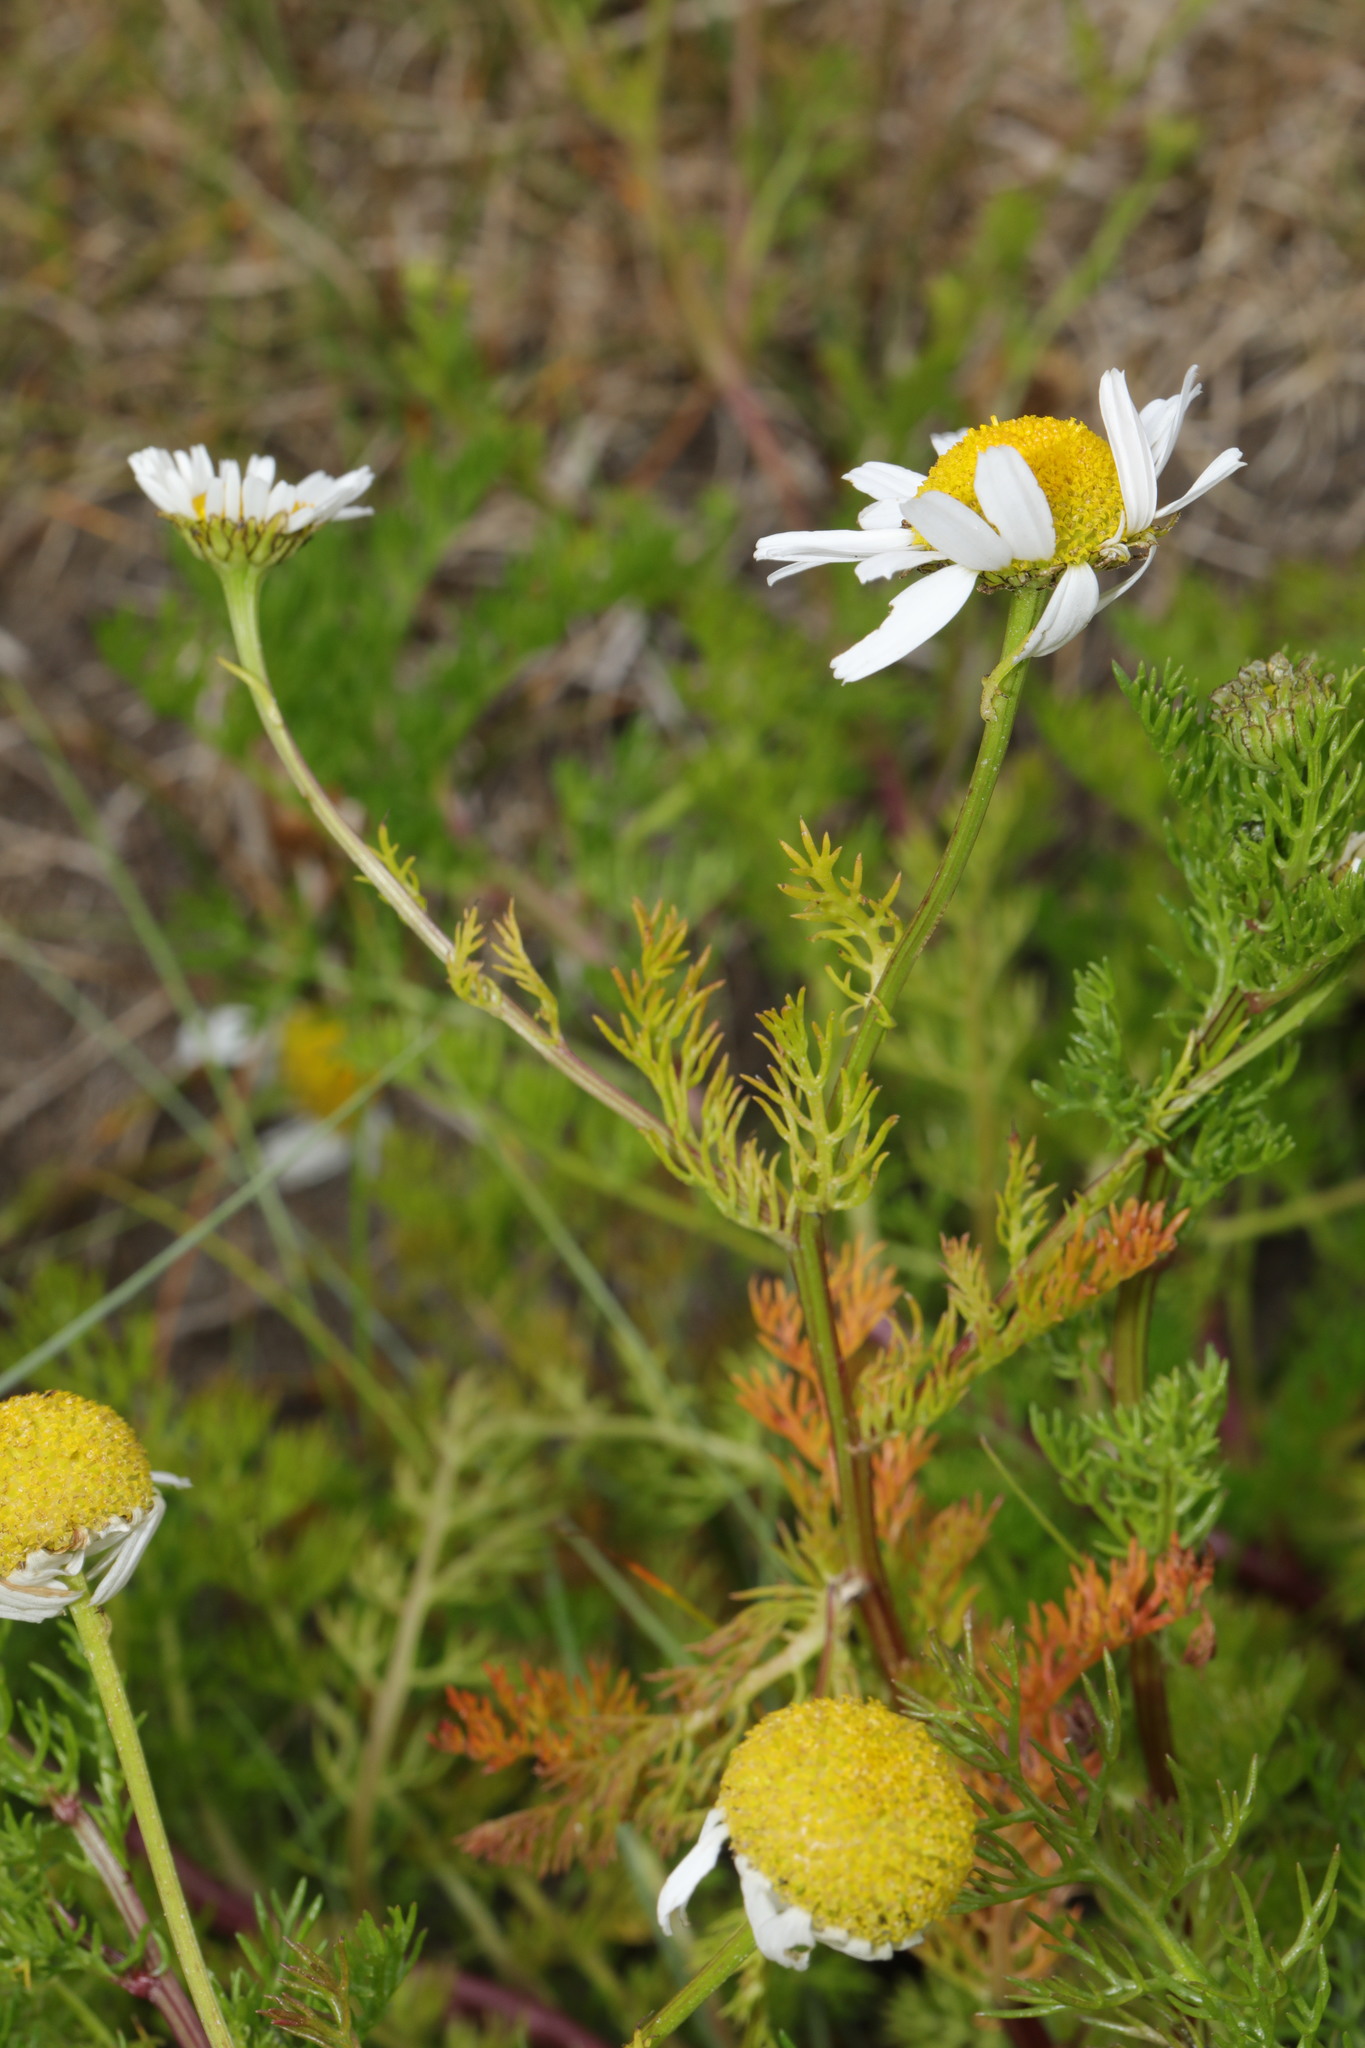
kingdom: Plantae
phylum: Tracheophyta
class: Magnoliopsida
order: Asterales
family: Asteraceae
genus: Tripleurospermum
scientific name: Tripleurospermum maritimum
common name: Sea mayweed
